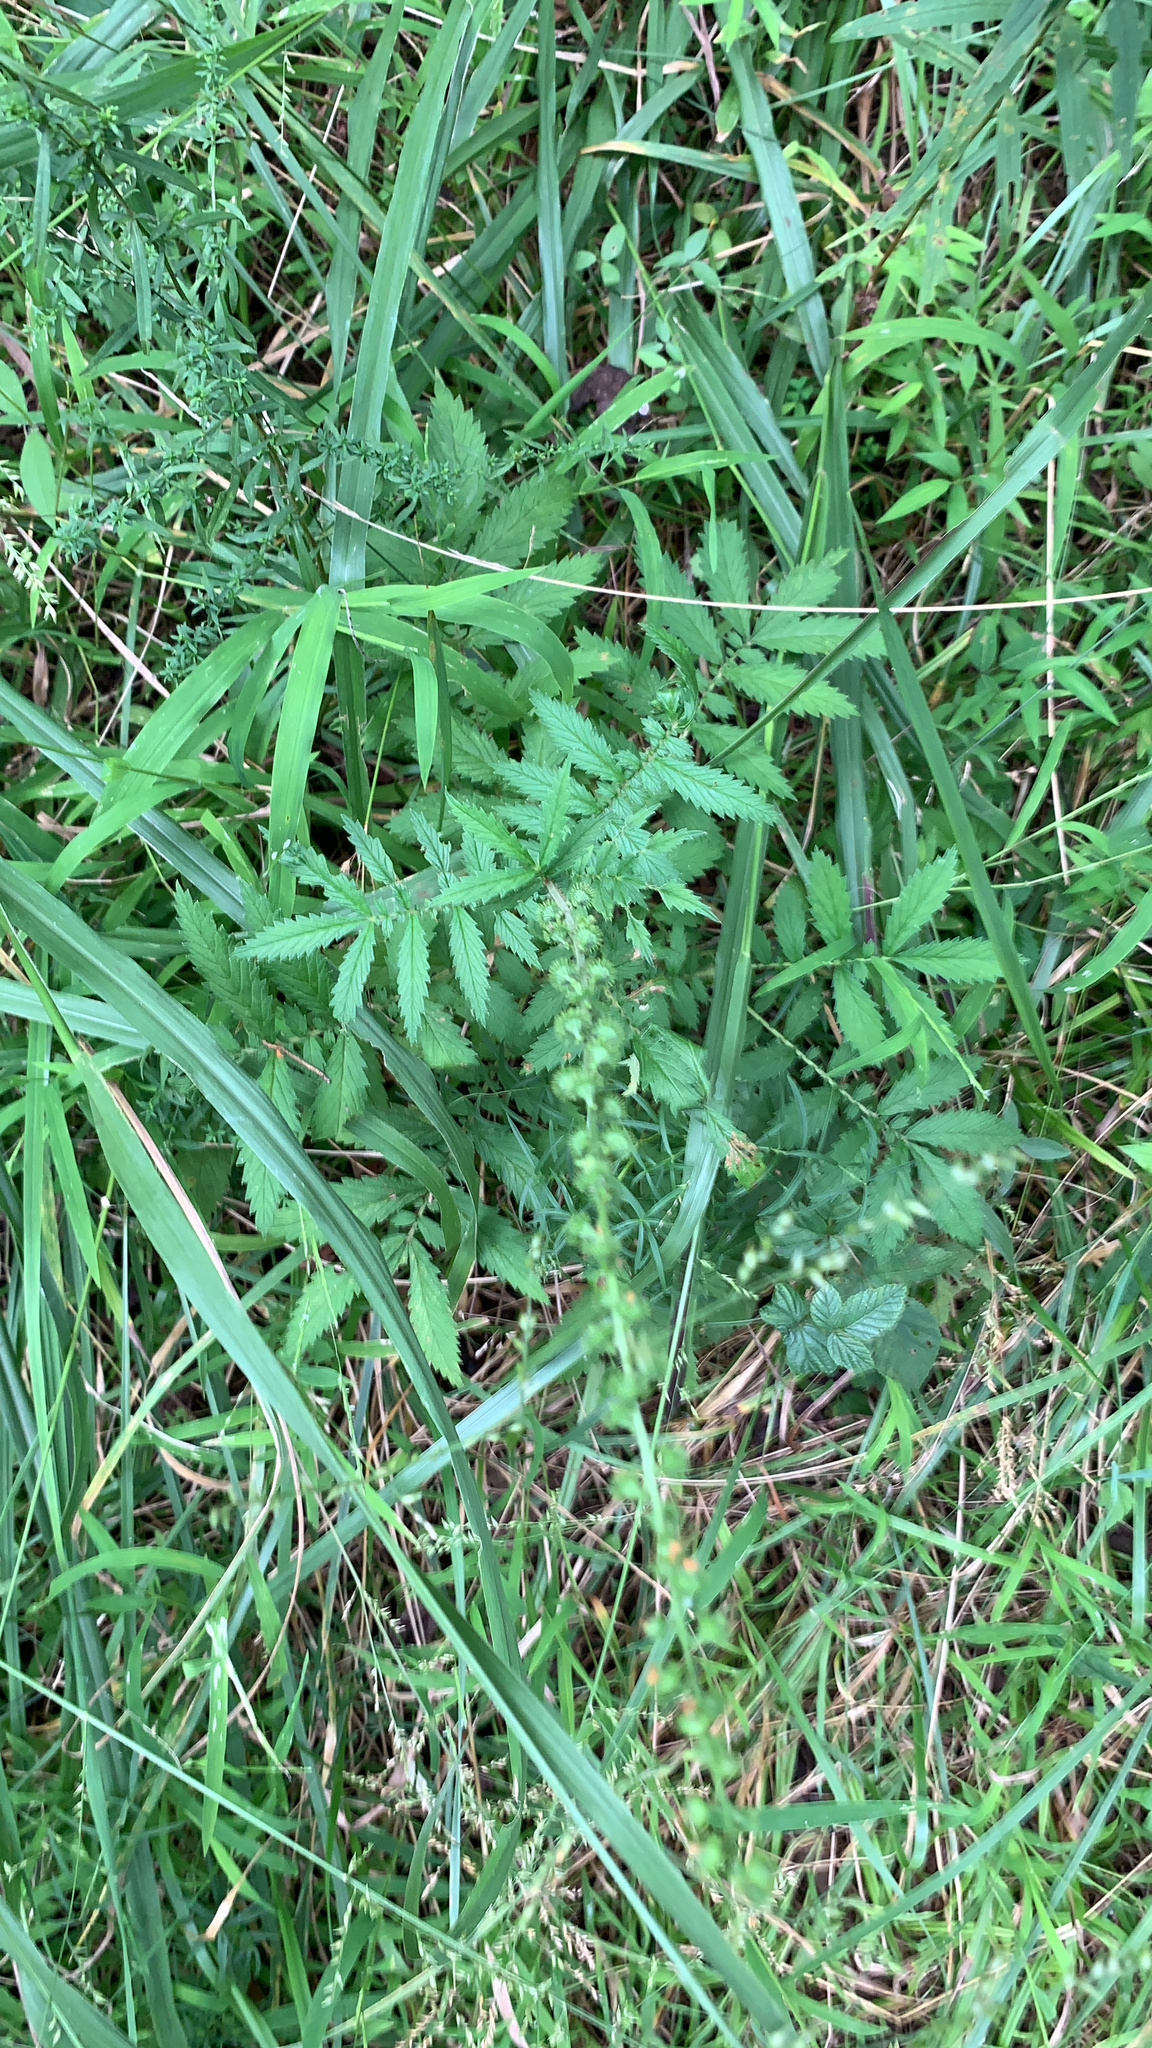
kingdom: Plantae
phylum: Tracheophyta
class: Magnoliopsida
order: Rosales
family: Rosaceae
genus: Agrimonia
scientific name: Agrimonia parviflora
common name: Harvest-lice
